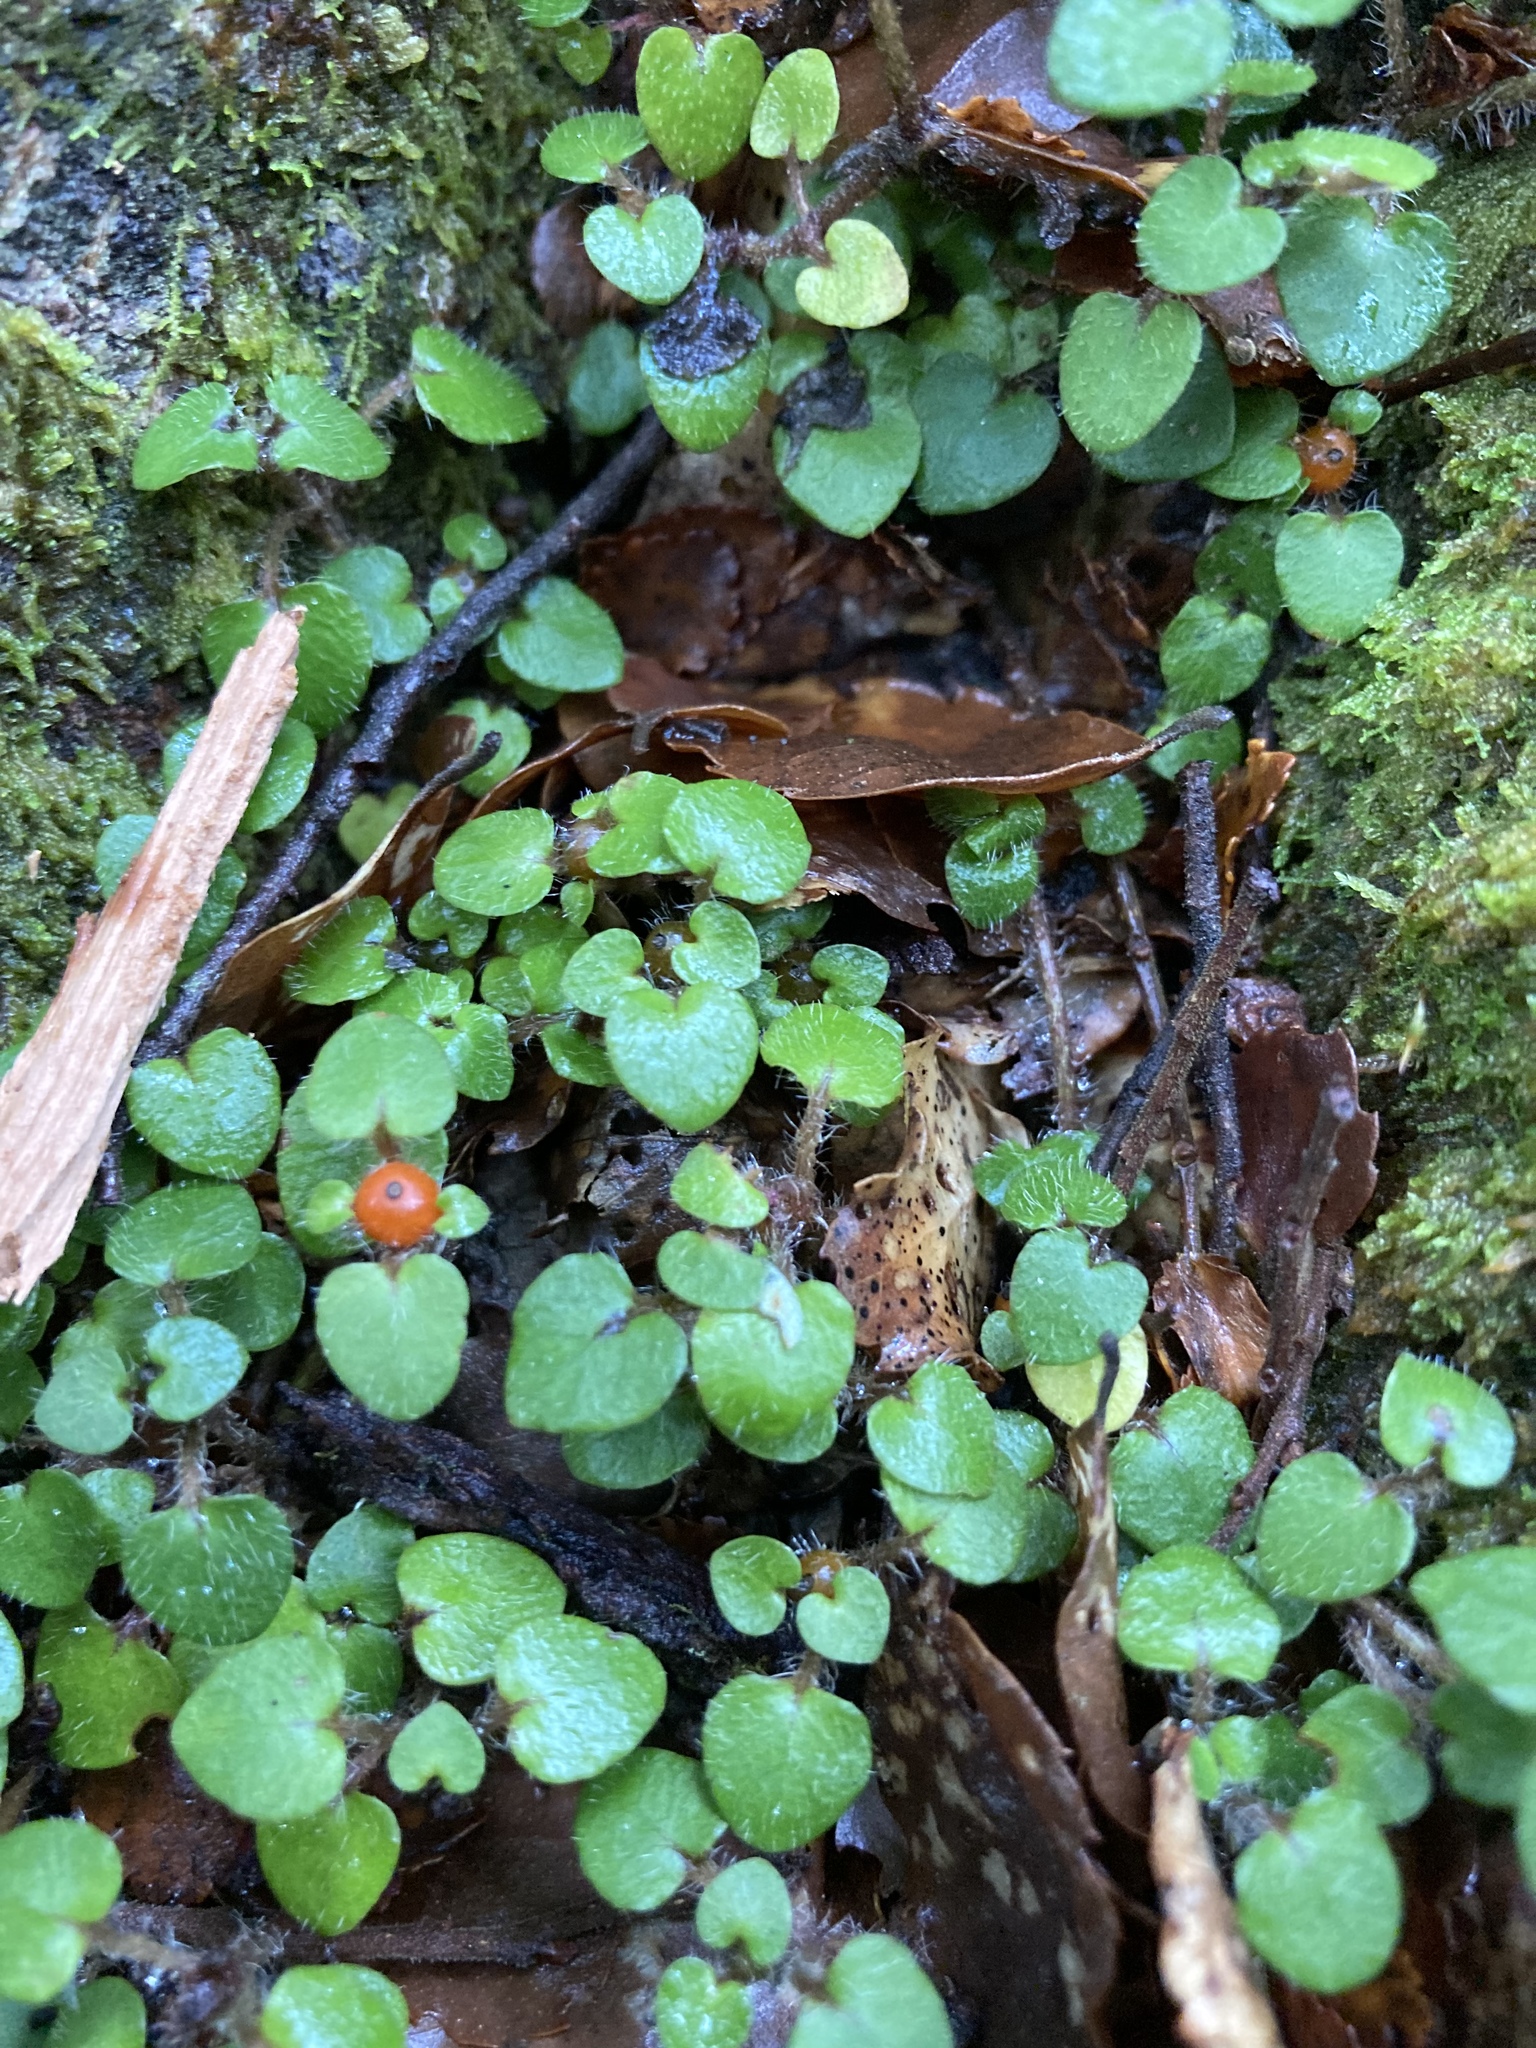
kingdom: Plantae
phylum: Tracheophyta
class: Magnoliopsida
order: Gentianales
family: Rubiaceae
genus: Nertera
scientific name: Nertera villosa
